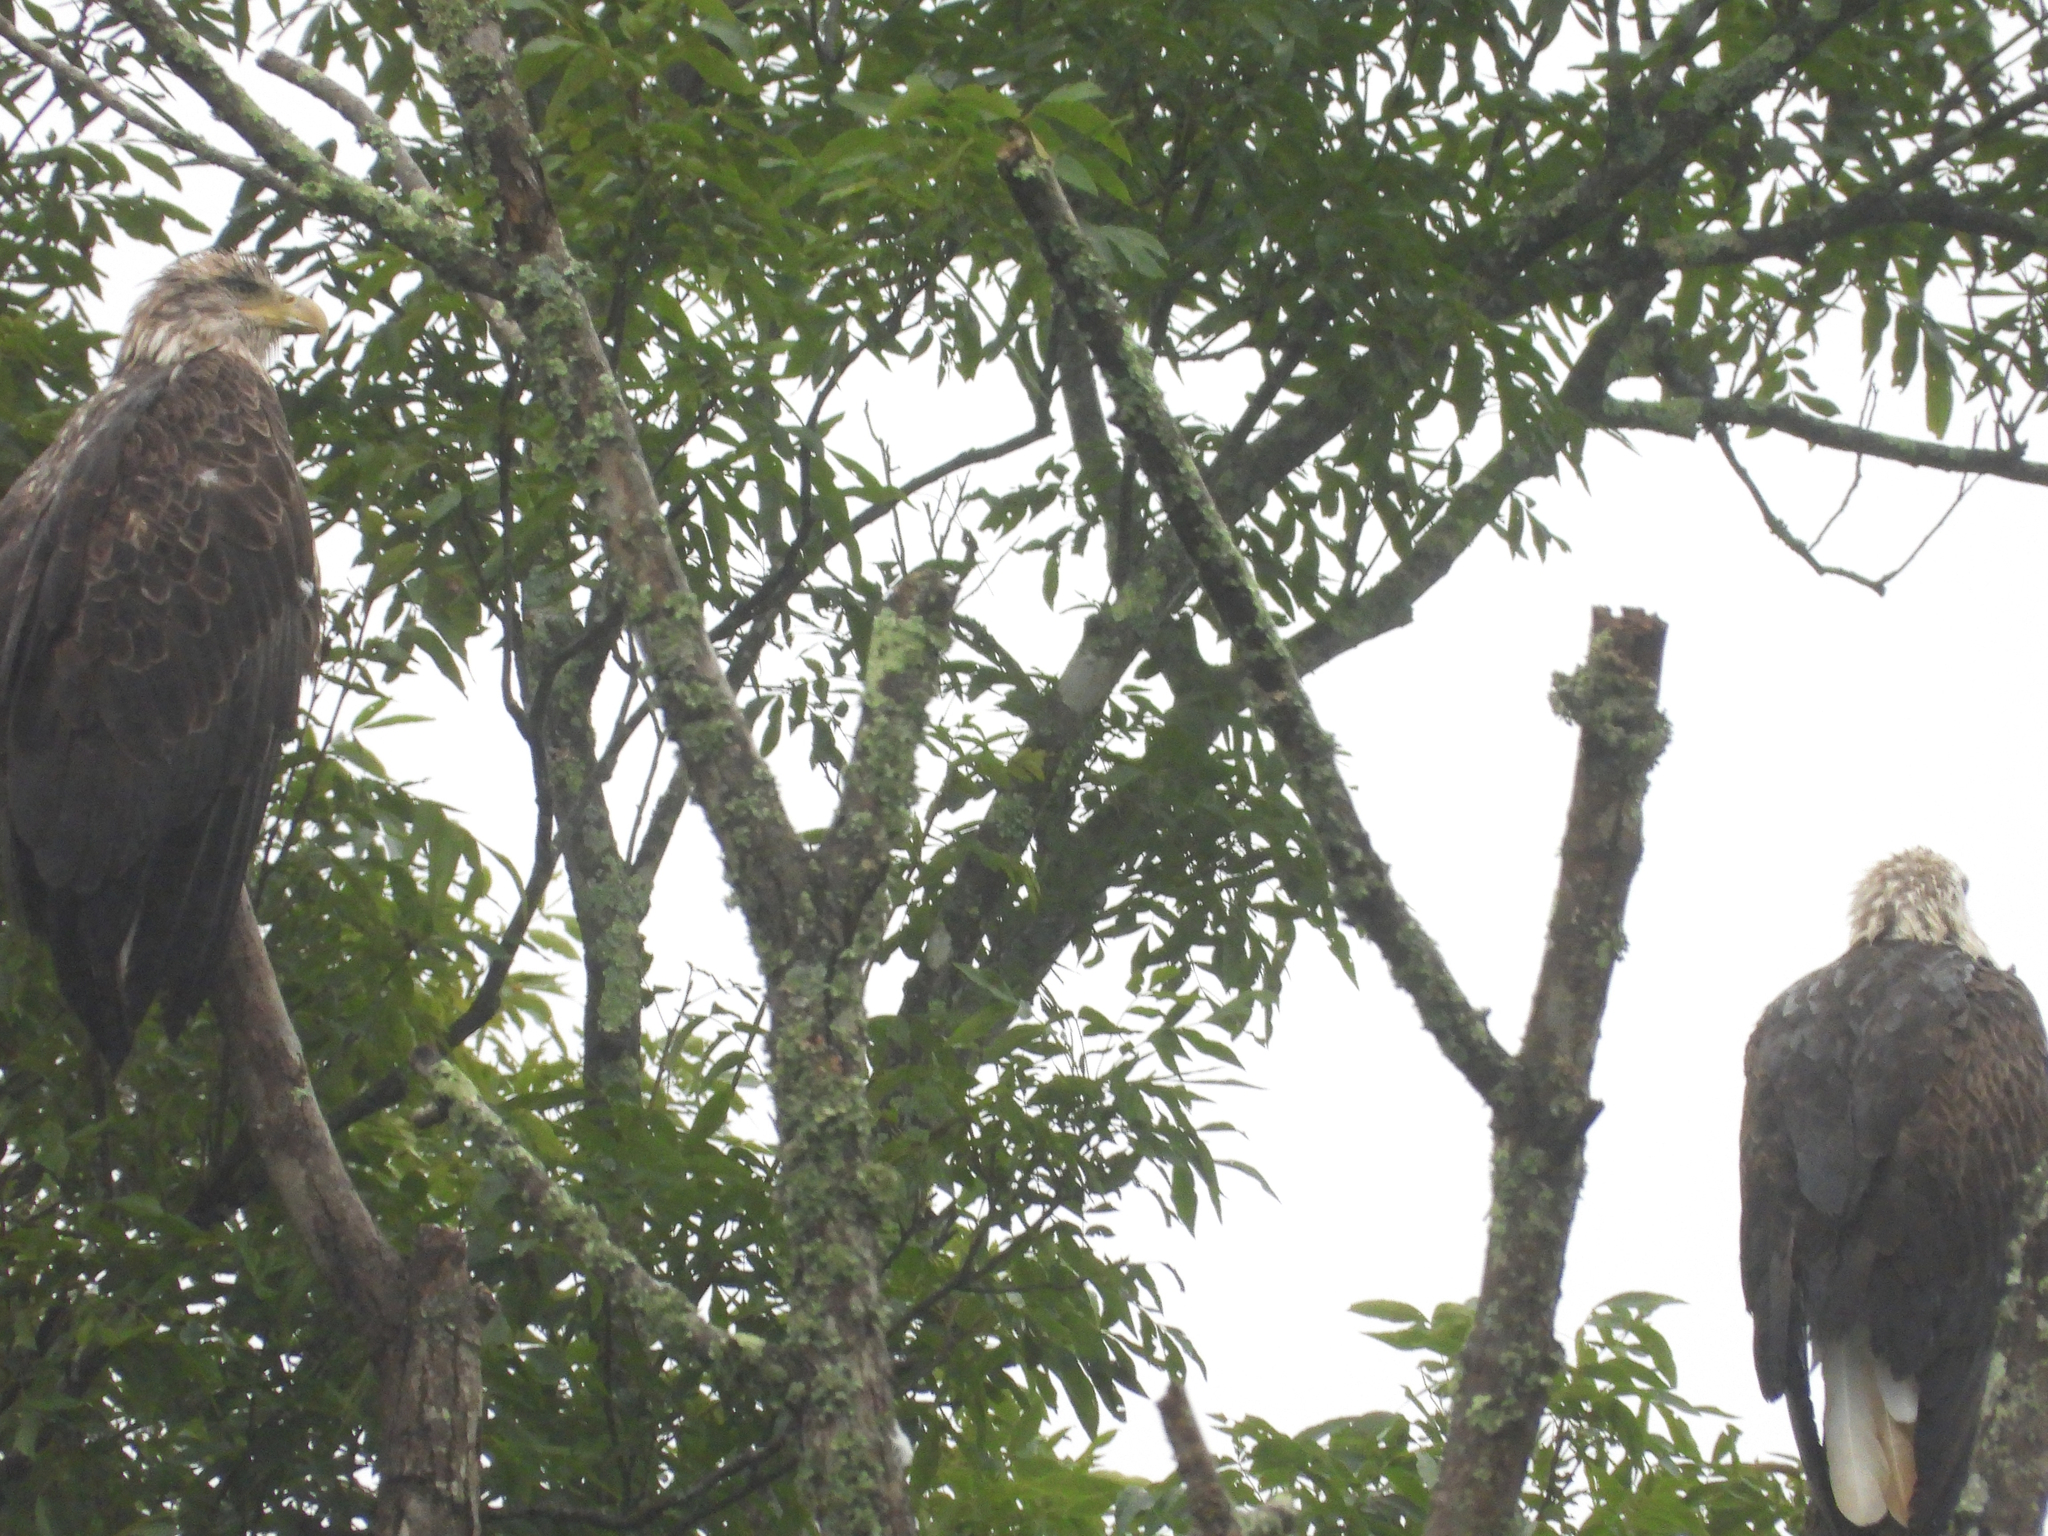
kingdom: Animalia
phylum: Chordata
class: Aves
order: Accipitriformes
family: Accipitridae
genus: Haliaeetus
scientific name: Haliaeetus leucocephalus
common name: Bald eagle
